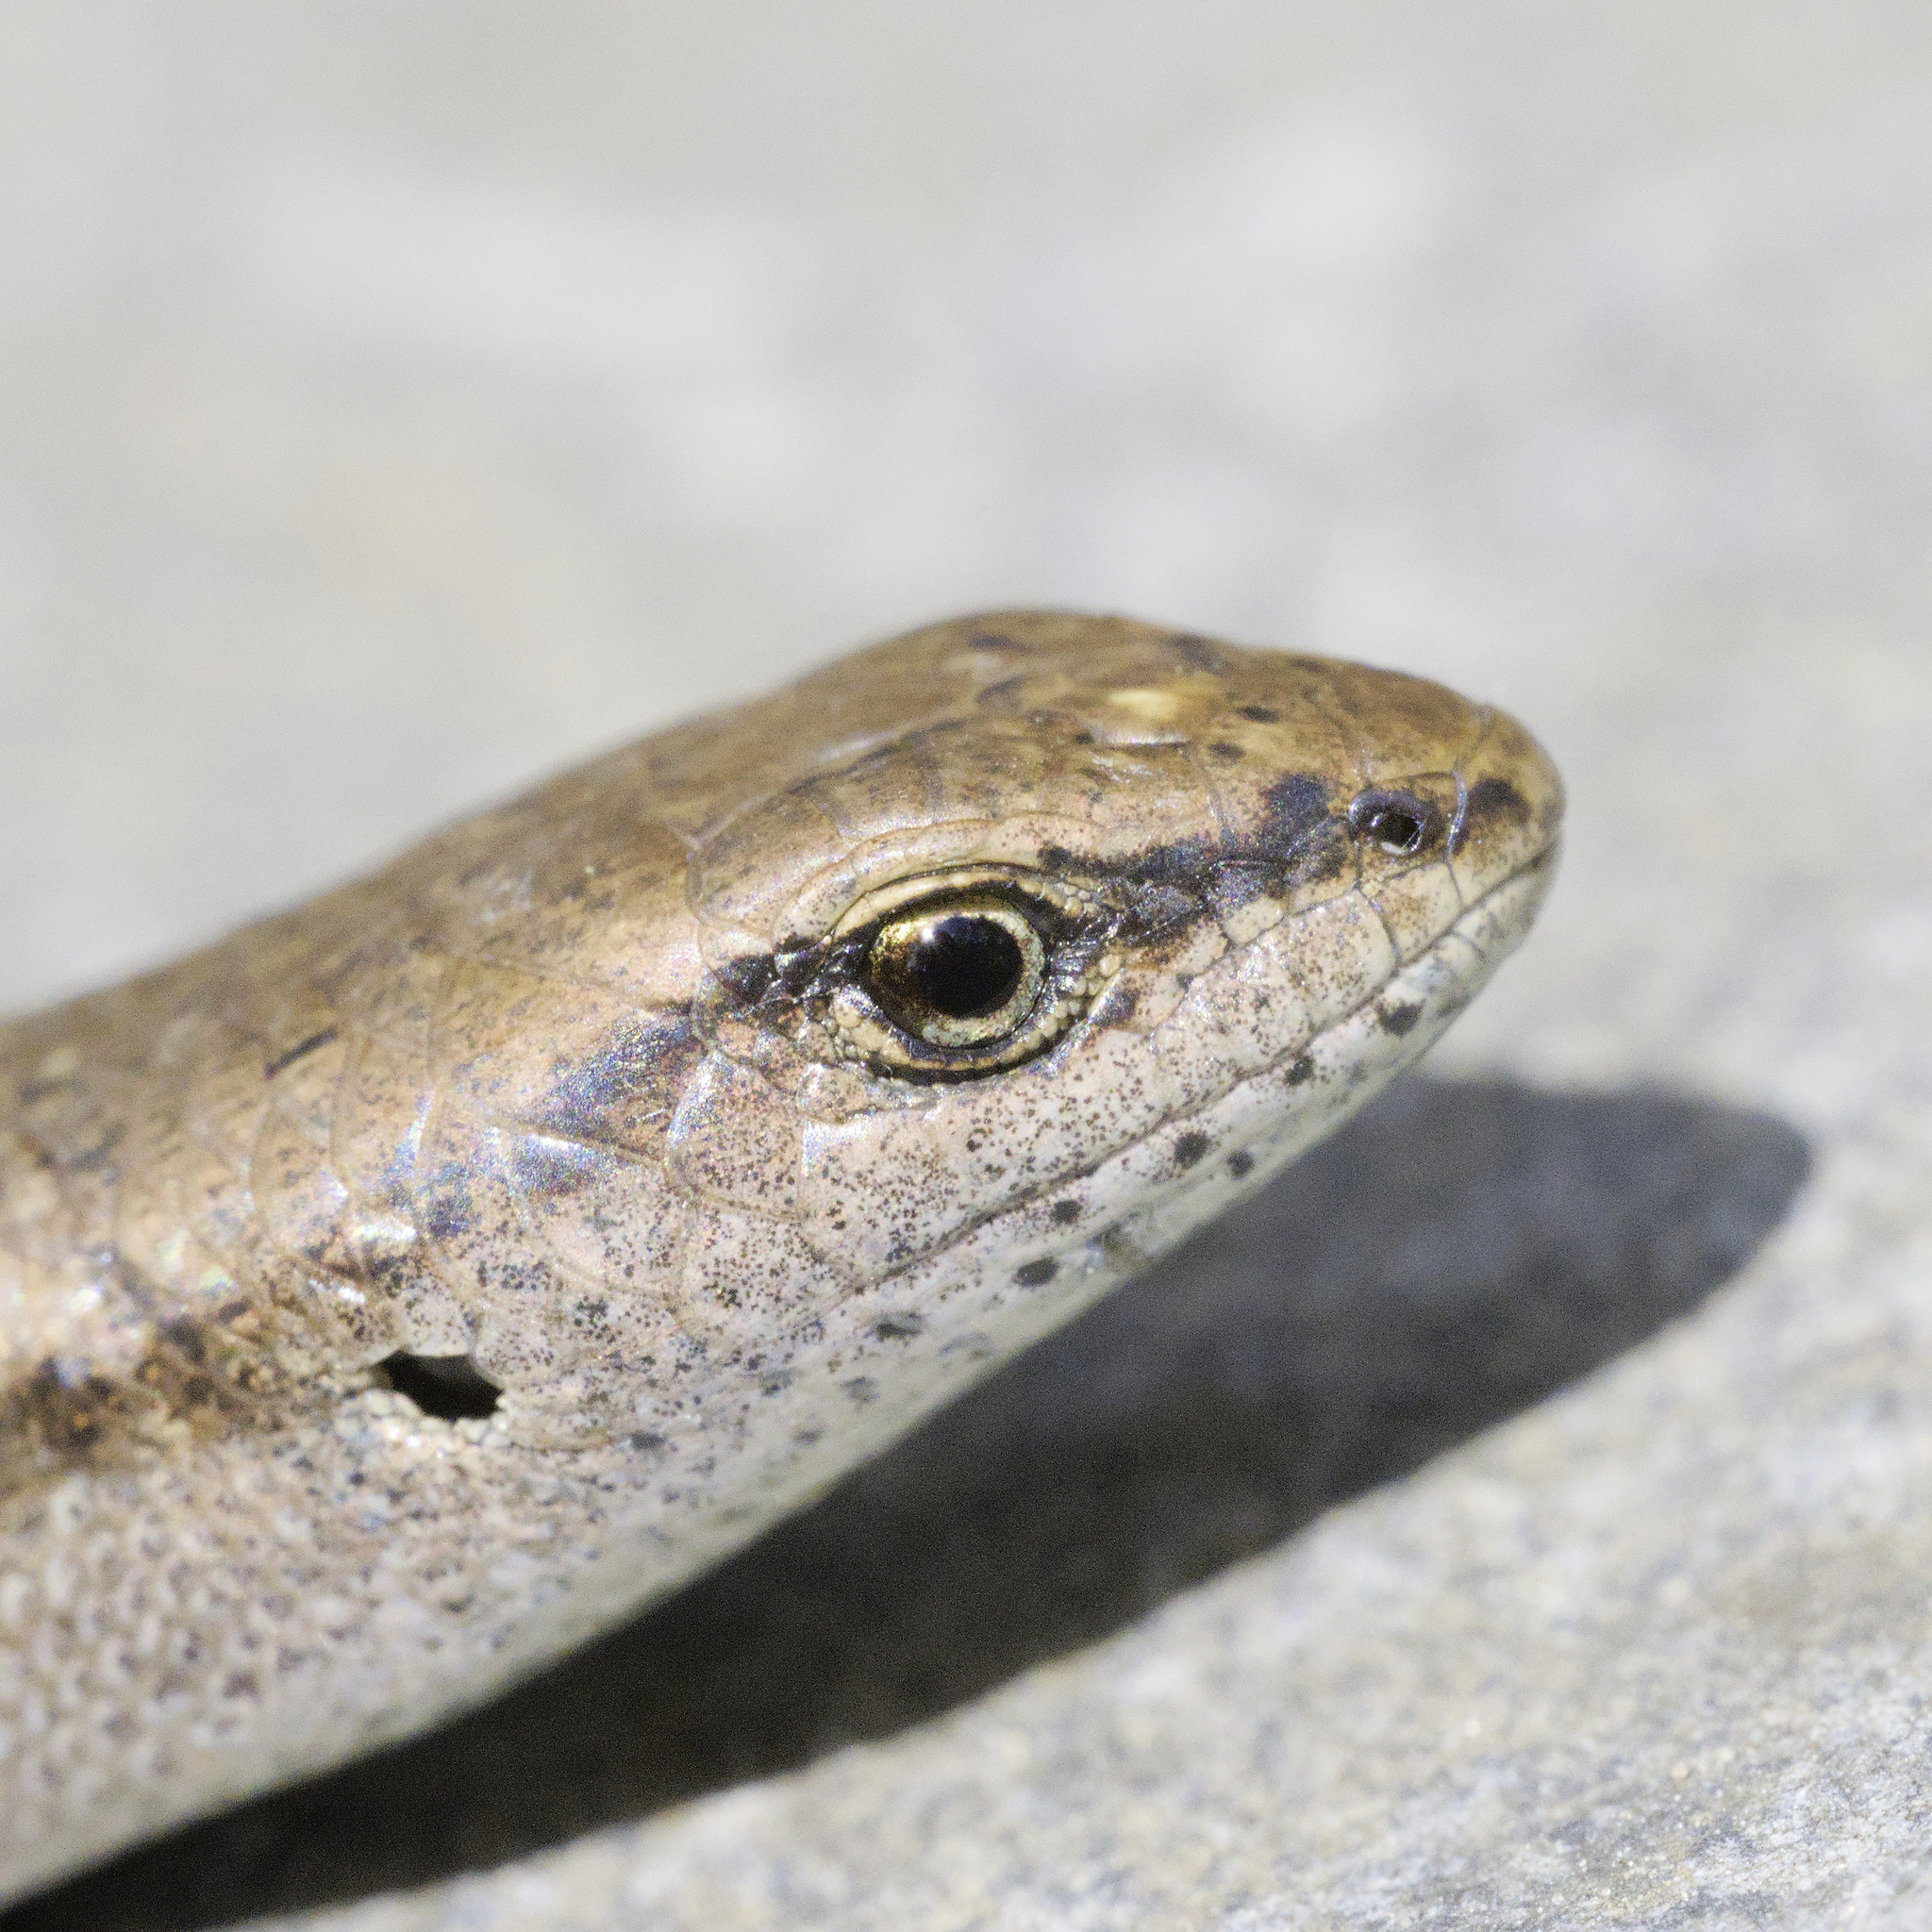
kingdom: Animalia
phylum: Chordata
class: Squamata
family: Scincidae
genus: Lampropholis
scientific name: Lampropholis guichenoti
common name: Garden skink
